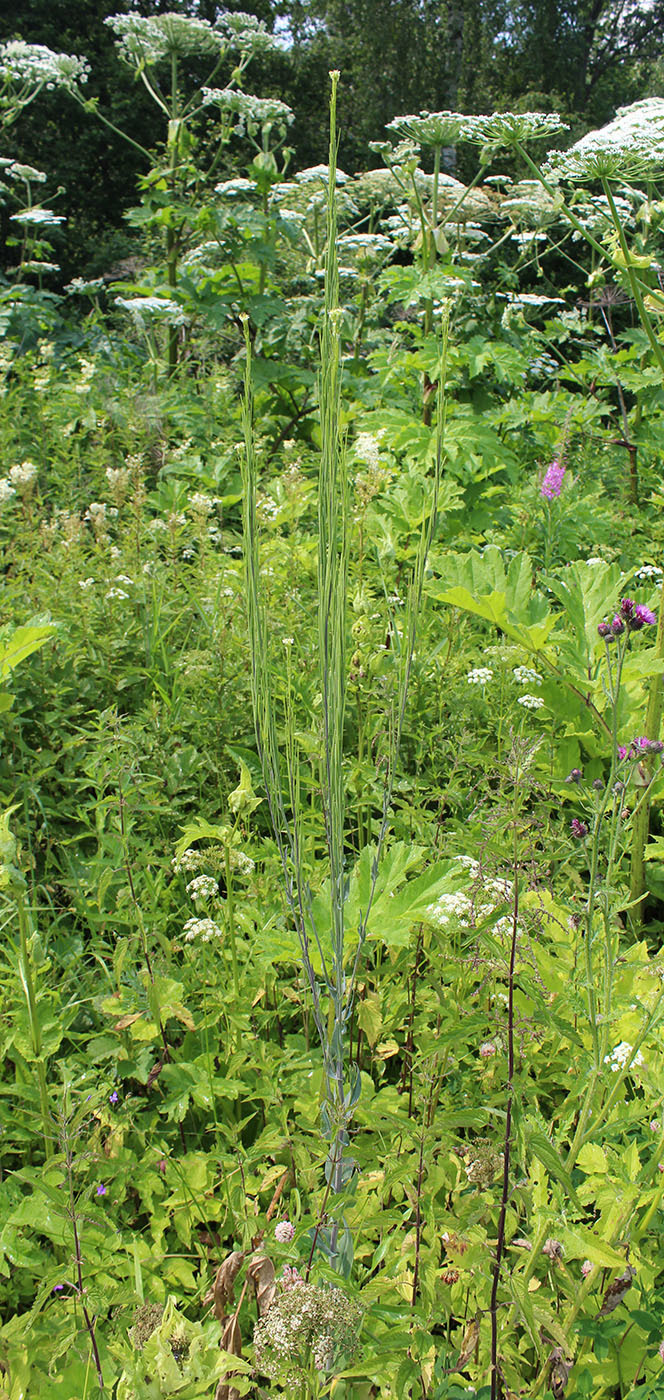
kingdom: Plantae
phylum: Tracheophyta
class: Magnoliopsida
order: Brassicales
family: Brassicaceae
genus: Turritis
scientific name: Turritis glabra
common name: Tower rockcress
